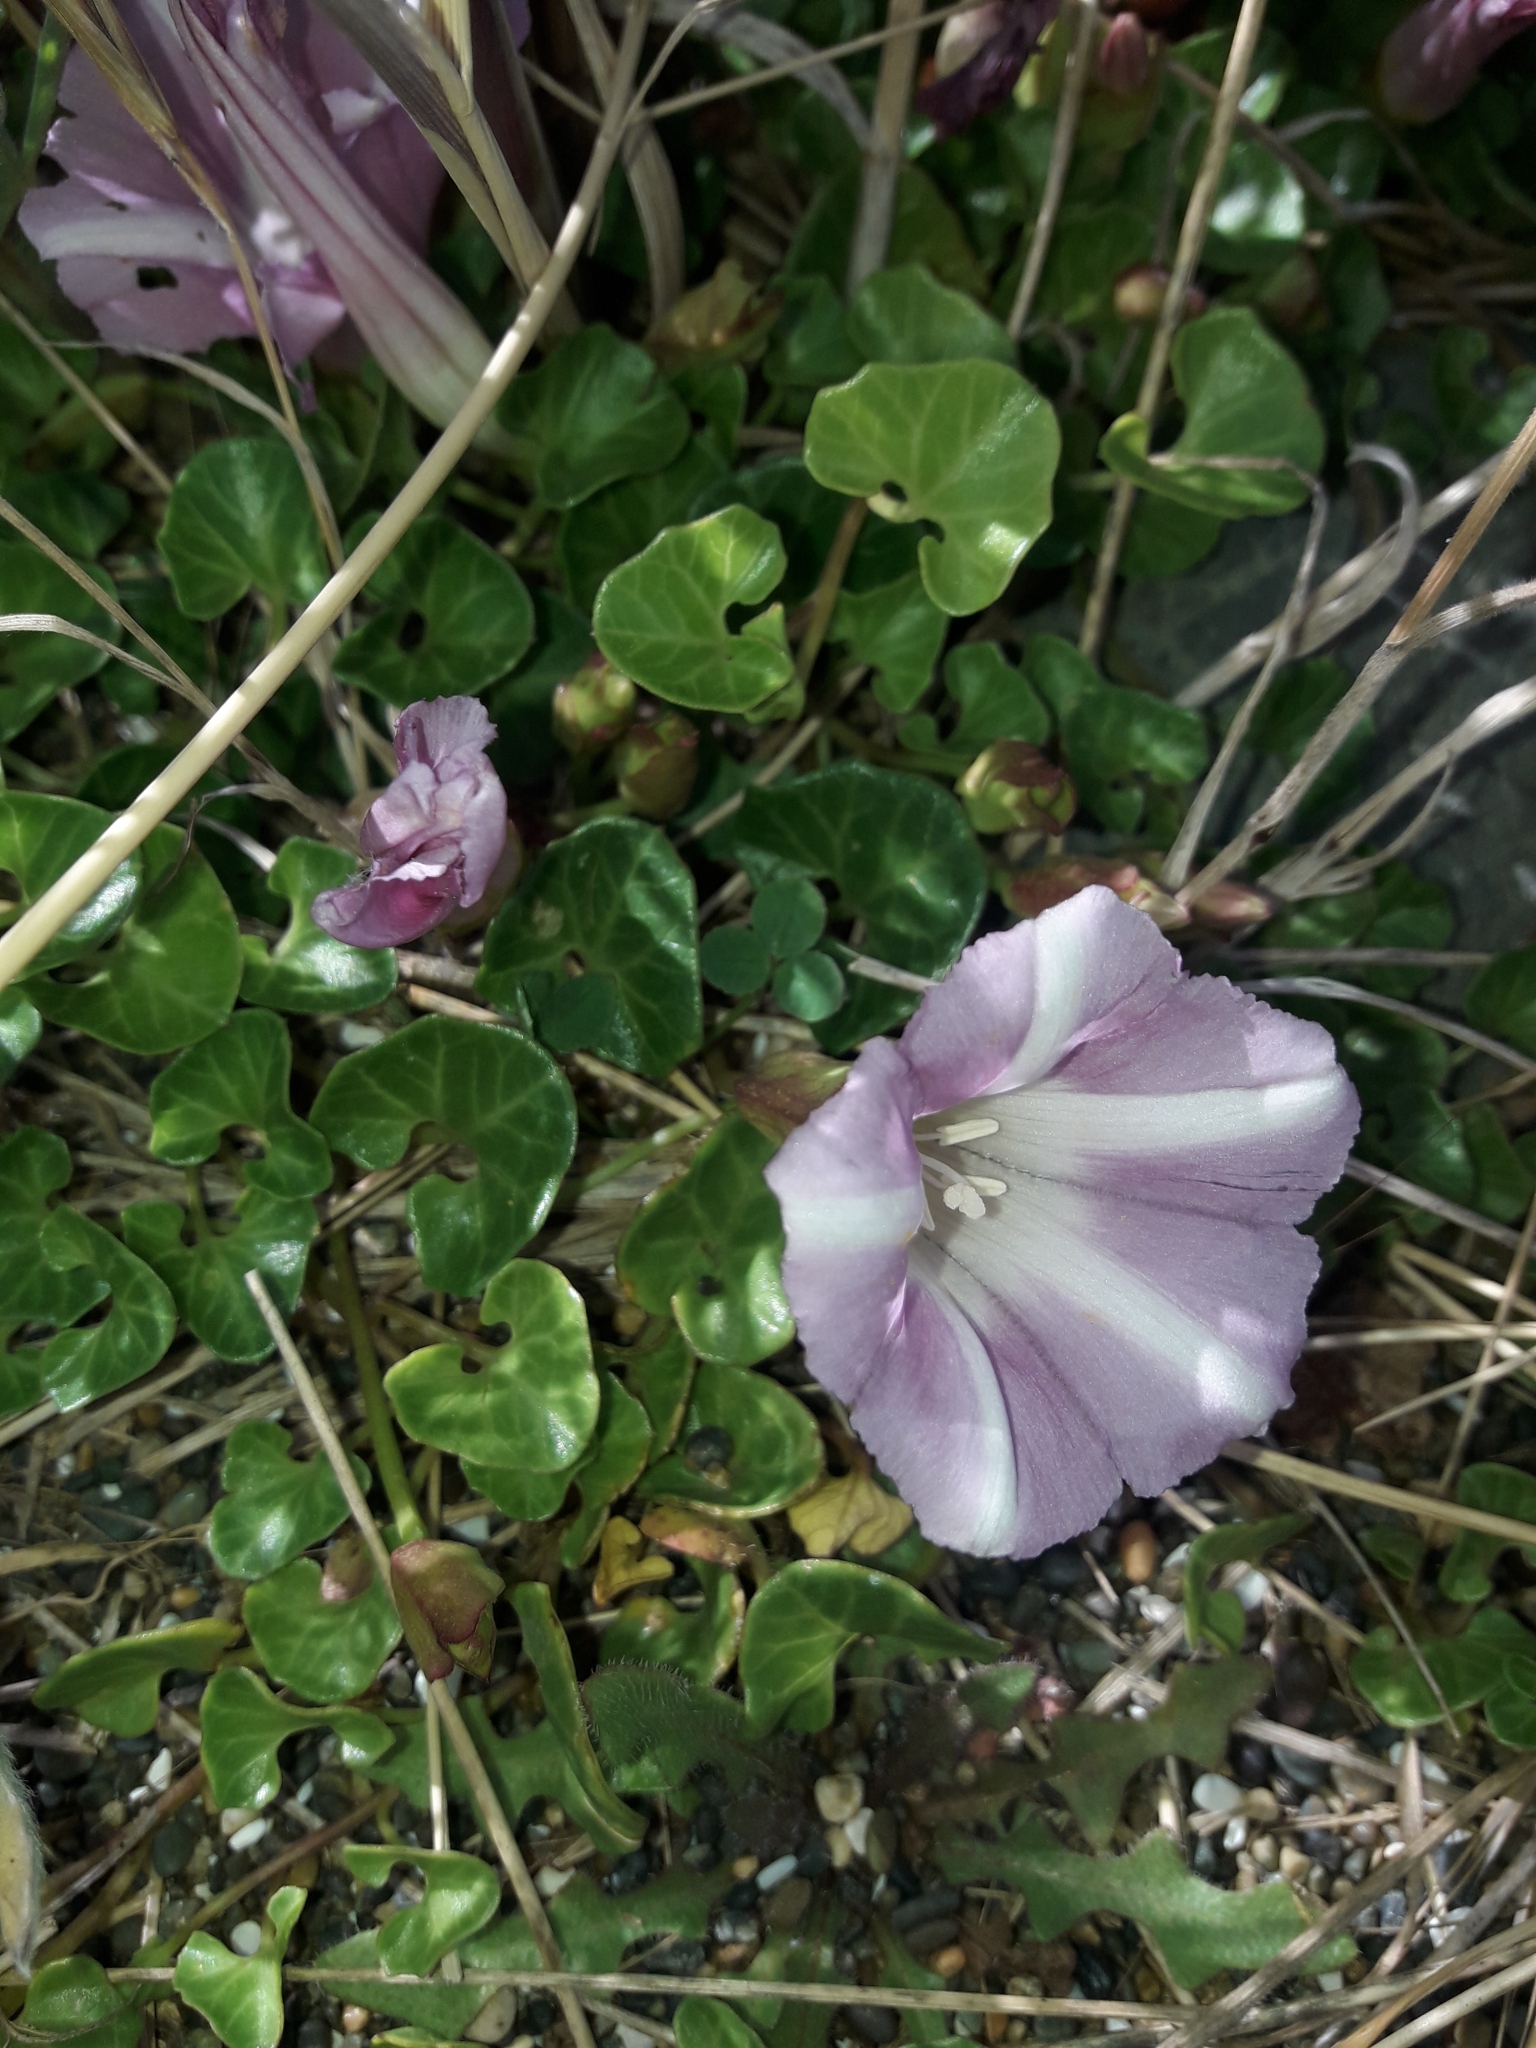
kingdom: Plantae
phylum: Tracheophyta
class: Magnoliopsida
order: Solanales
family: Convolvulaceae
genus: Calystegia
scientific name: Calystegia soldanella
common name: Sea bindweed
